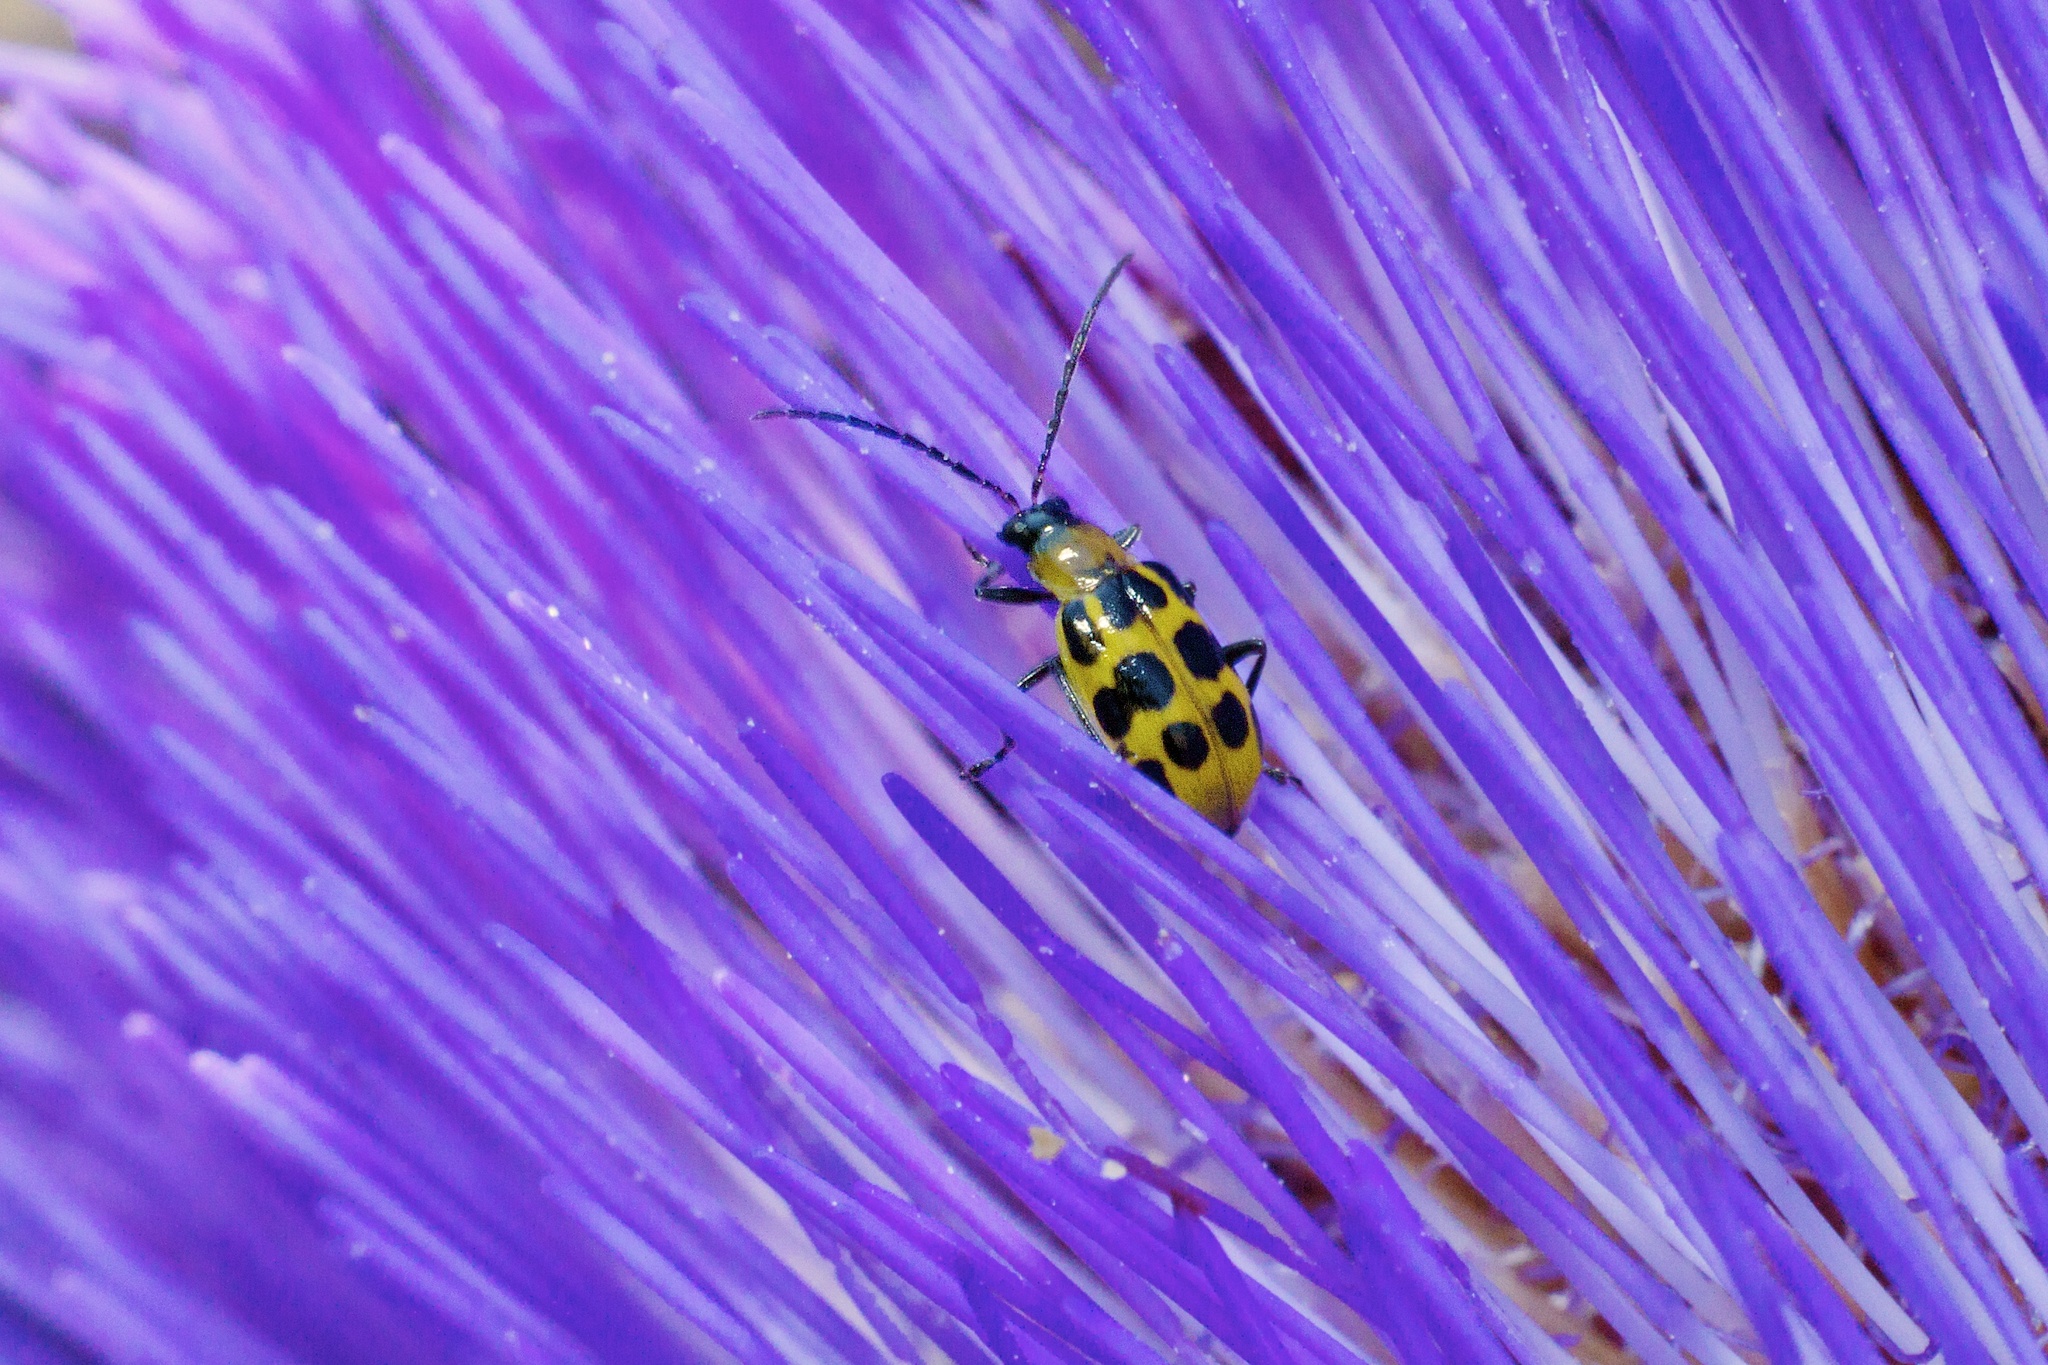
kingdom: Animalia
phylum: Arthropoda
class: Insecta
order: Coleoptera
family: Chrysomelidae
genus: Diabrotica
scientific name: Diabrotica undecimpunctata
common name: Spotted cucumber beetle
